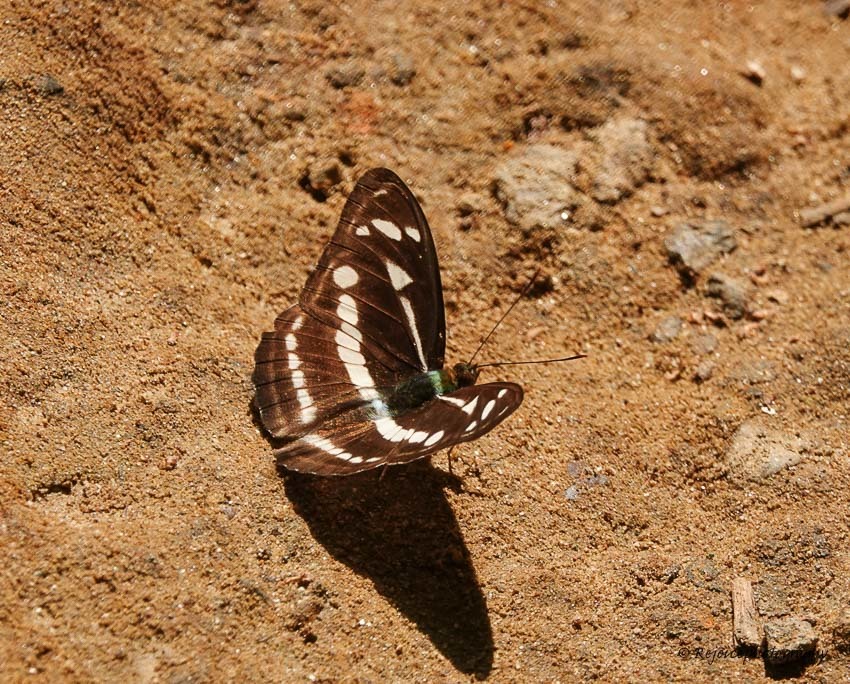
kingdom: Animalia
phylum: Arthropoda
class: Insecta
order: Lepidoptera
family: Nymphalidae
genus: Parathyma
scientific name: Parathyma kanwa
